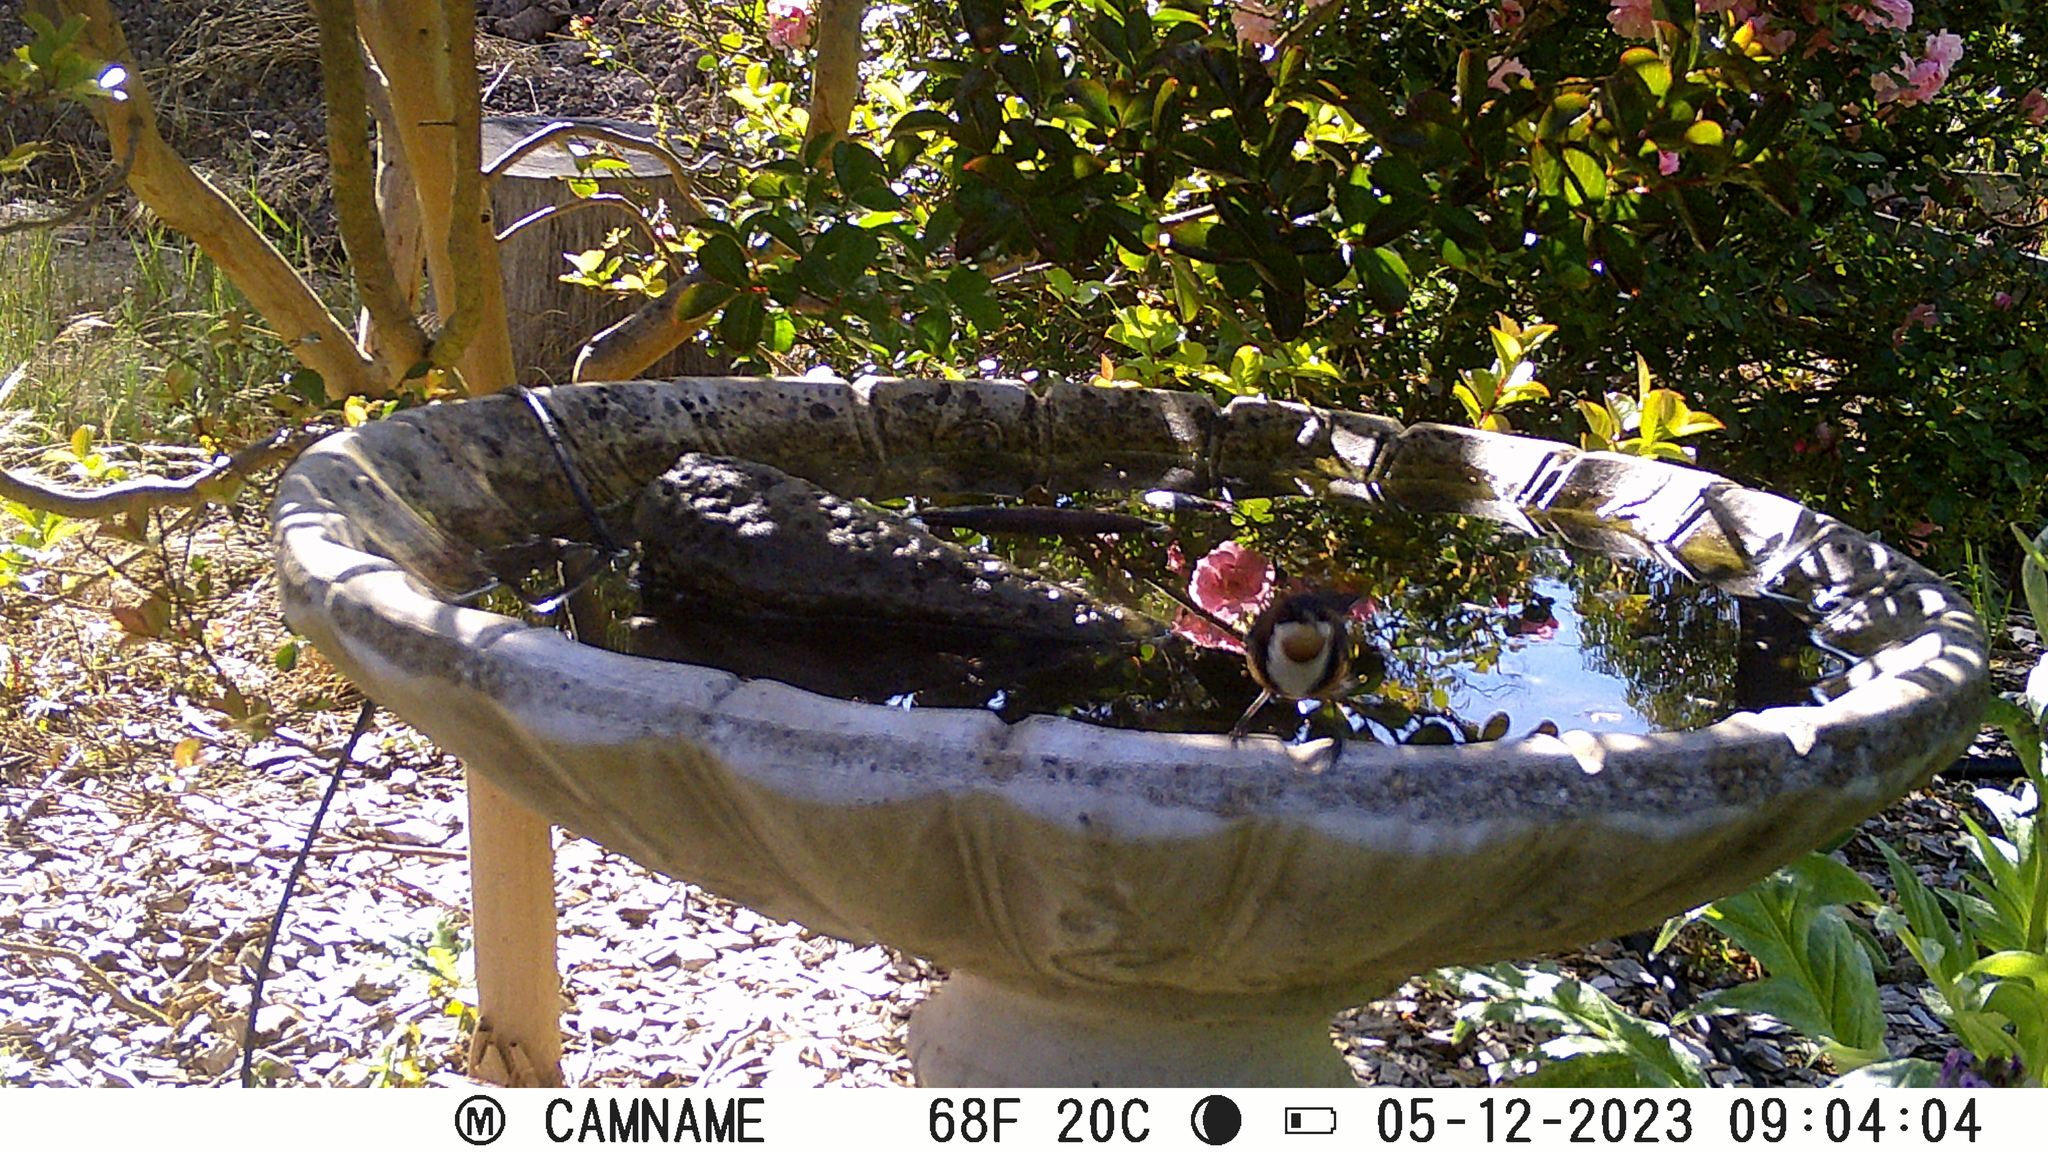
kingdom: Animalia
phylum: Chordata
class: Aves
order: Passeriformes
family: Meliphagidae
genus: Acanthorhynchus
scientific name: Acanthorhynchus tenuirostris
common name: Eastern spinebill
